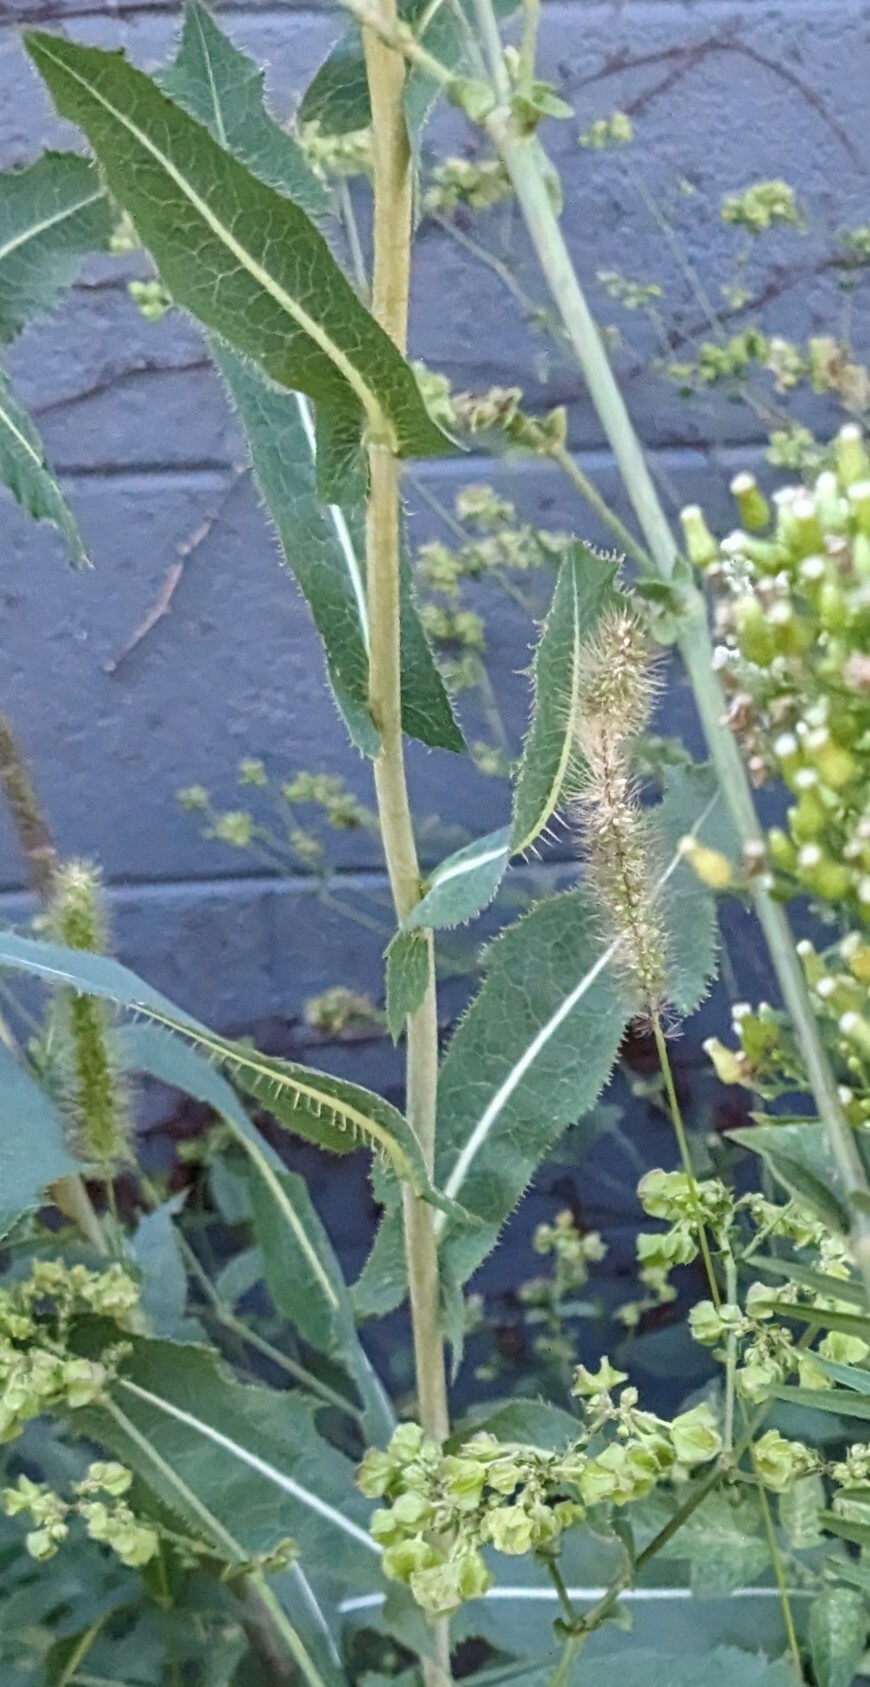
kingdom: Plantae
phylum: Tracheophyta
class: Magnoliopsida
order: Asterales
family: Asteraceae
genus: Lactuca
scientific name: Lactuca serriola
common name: Prickly lettuce
